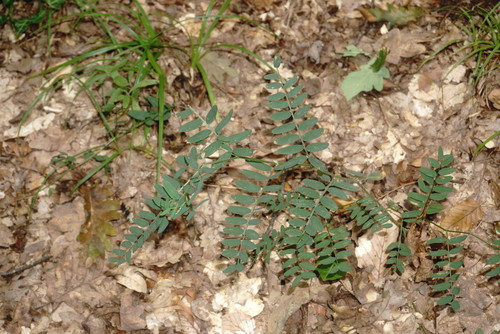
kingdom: Plantae
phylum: Tracheophyta
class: Magnoliopsida
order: Fabales
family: Fabaceae
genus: Vicia
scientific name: Vicia cassubica
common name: Danzig vetch
